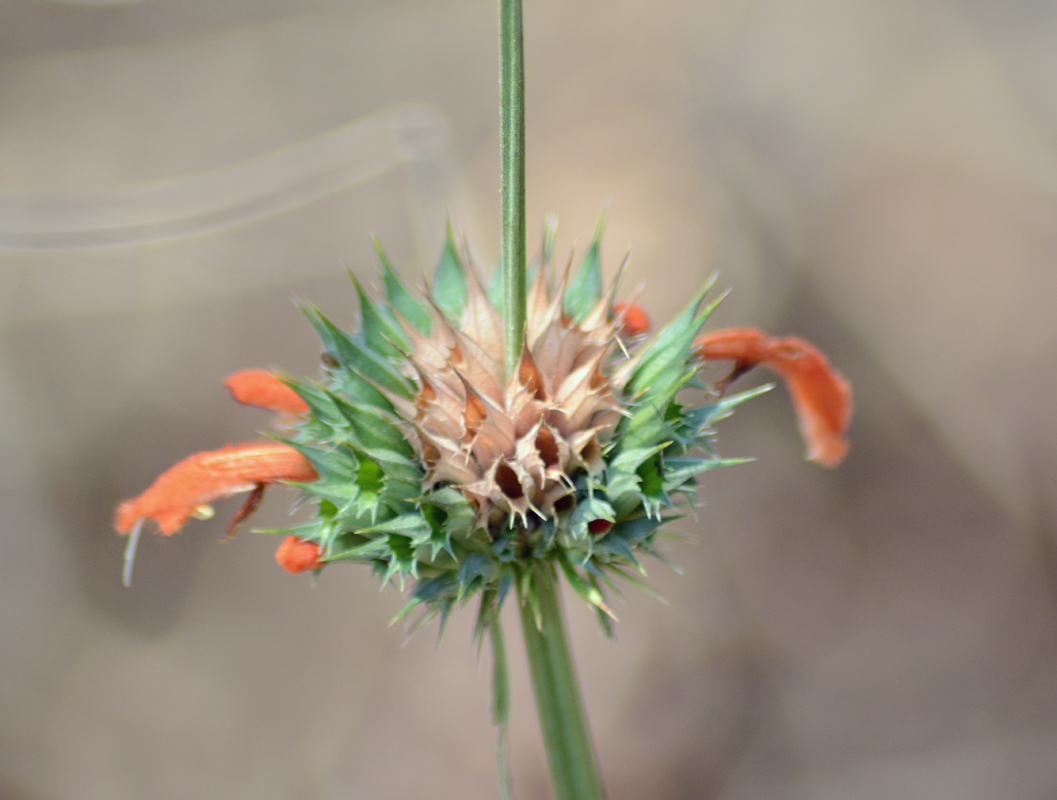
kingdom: Plantae
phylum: Tracheophyta
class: Magnoliopsida
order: Lamiales
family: Lamiaceae
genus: Leonotis
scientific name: Leonotis nepetifolia
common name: Christmas candlestick
